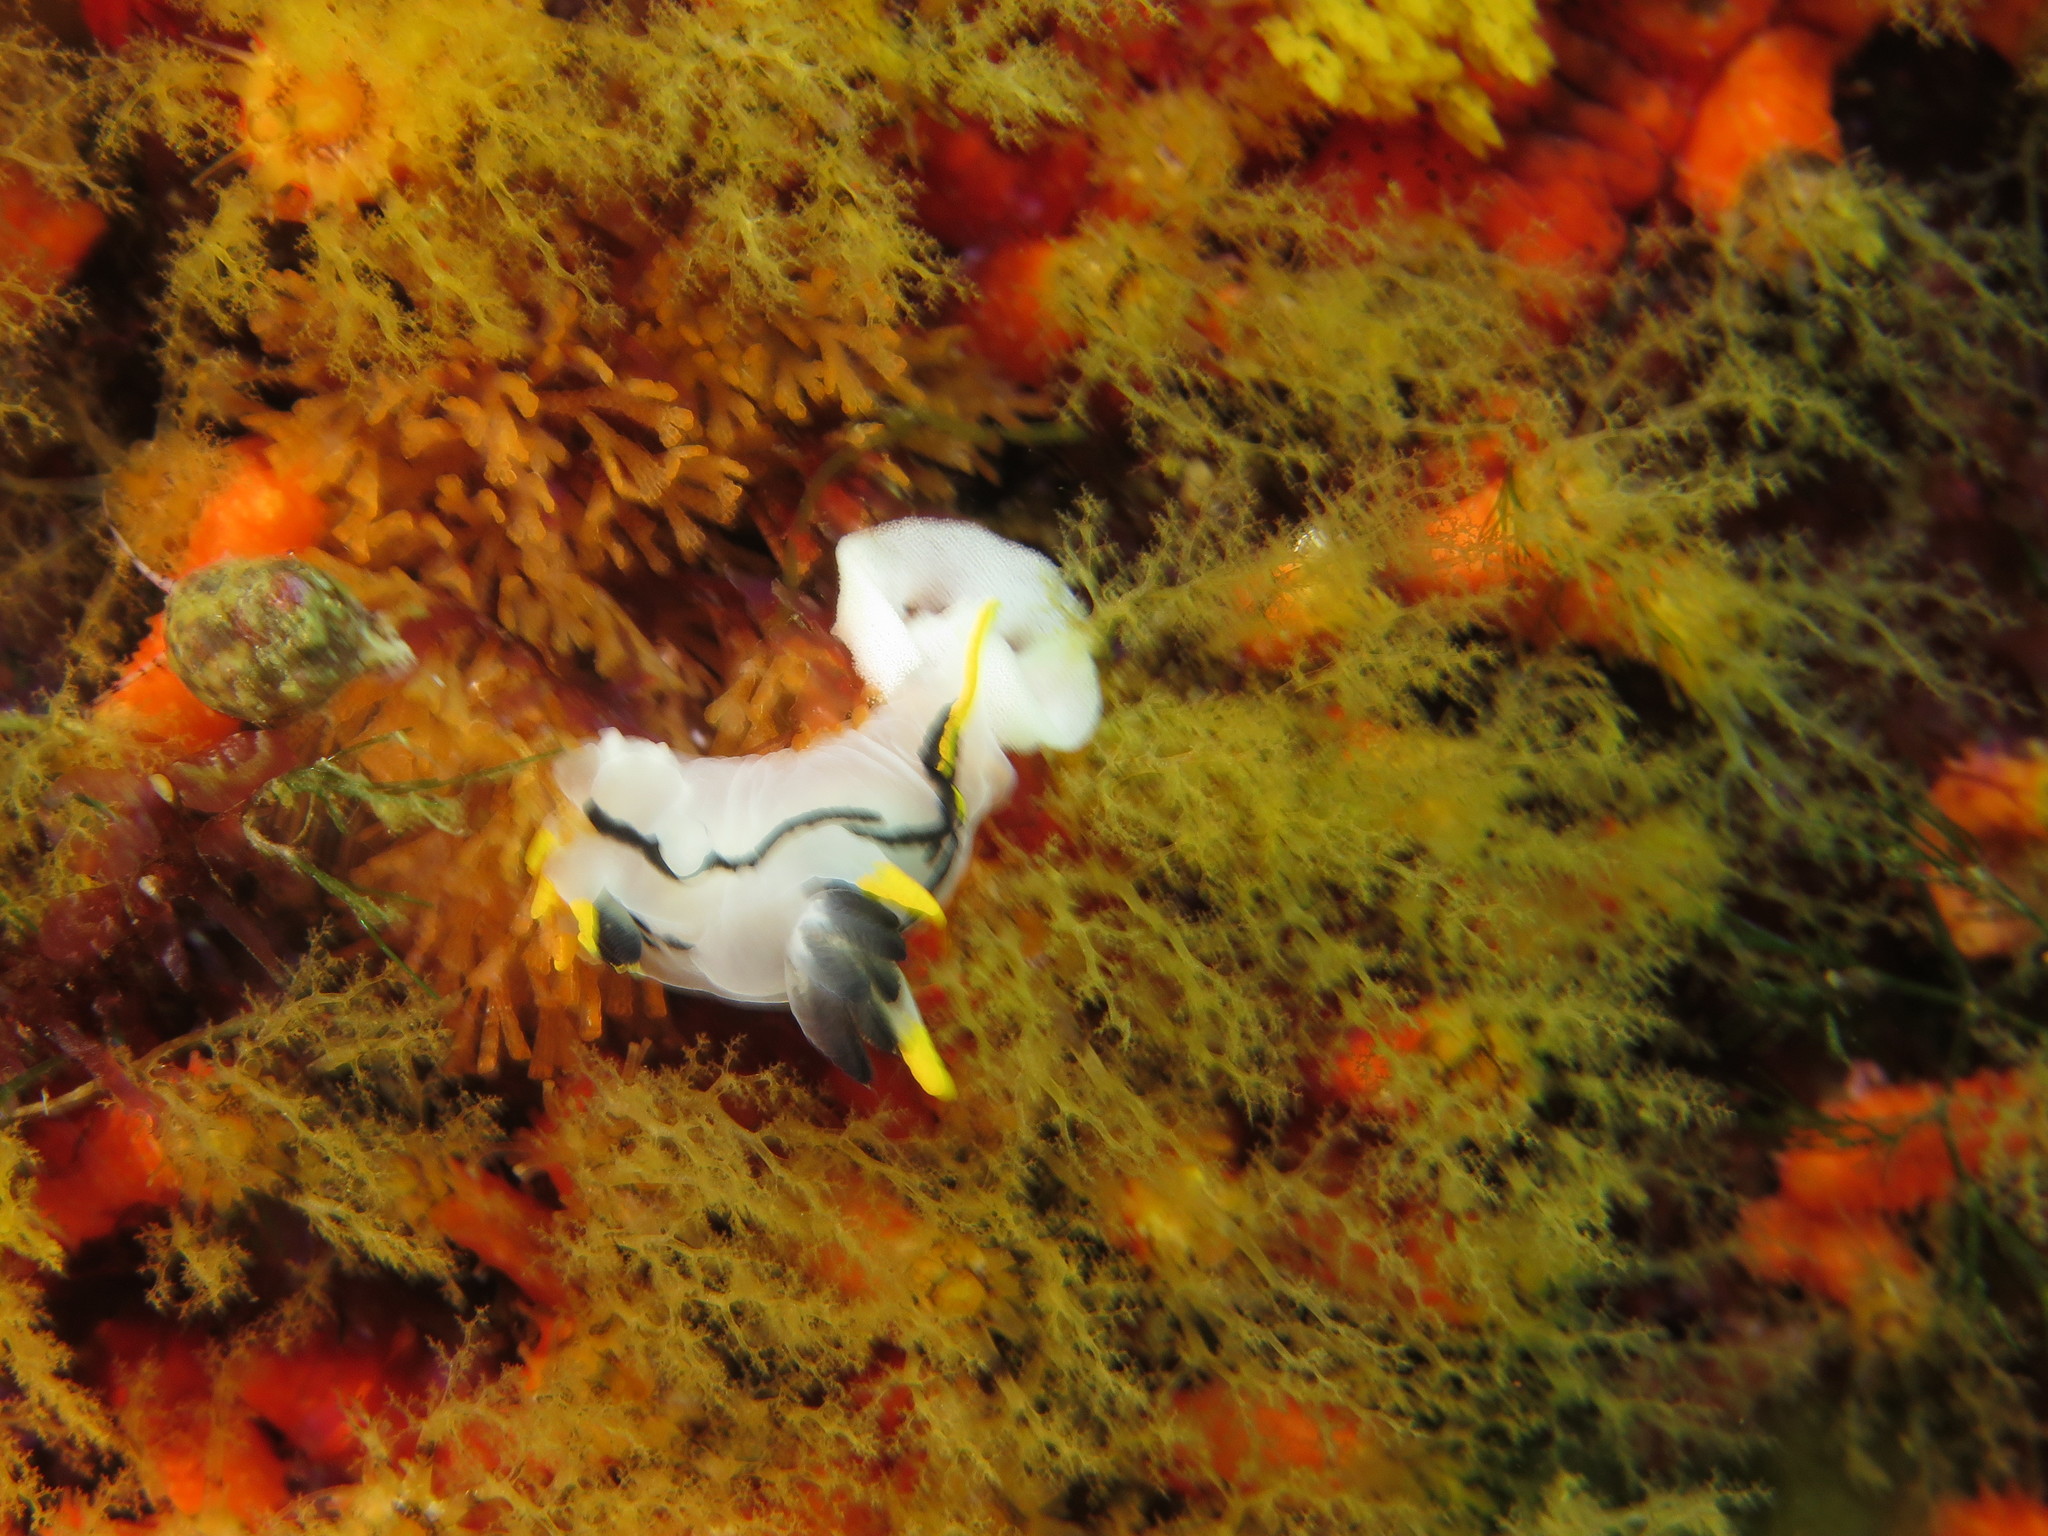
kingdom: Animalia
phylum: Mollusca
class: Gastropoda
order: Nudibranchia
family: Polyceridae
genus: Polycera
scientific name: Polycera capensis
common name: Crowned nudibranch
